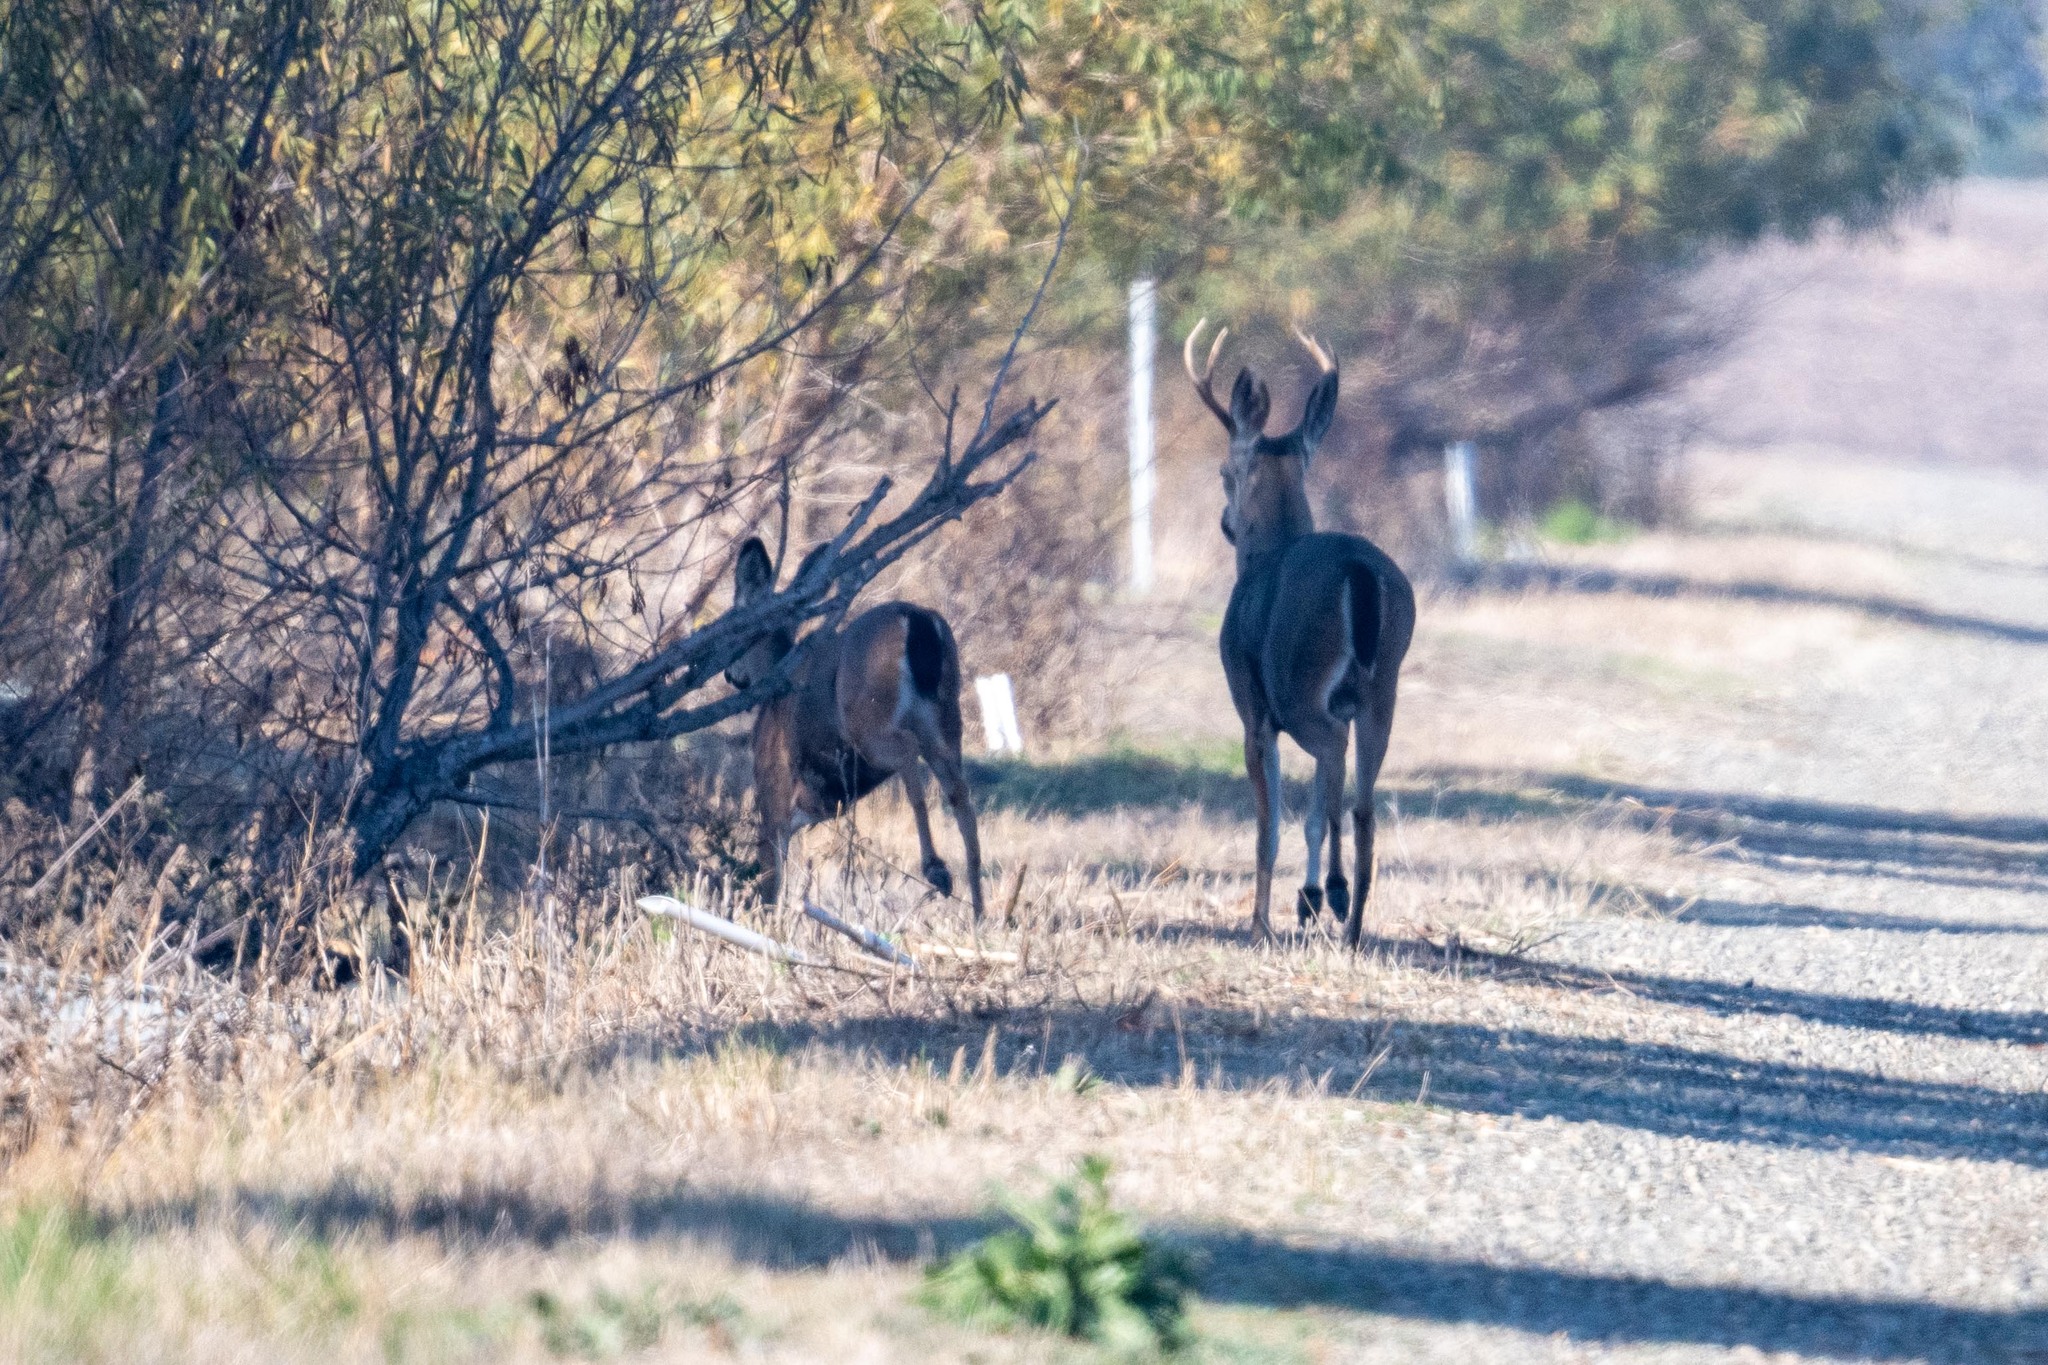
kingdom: Animalia
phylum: Chordata
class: Mammalia
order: Artiodactyla
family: Cervidae
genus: Odocoileus
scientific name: Odocoileus hemionus
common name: Mule deer
